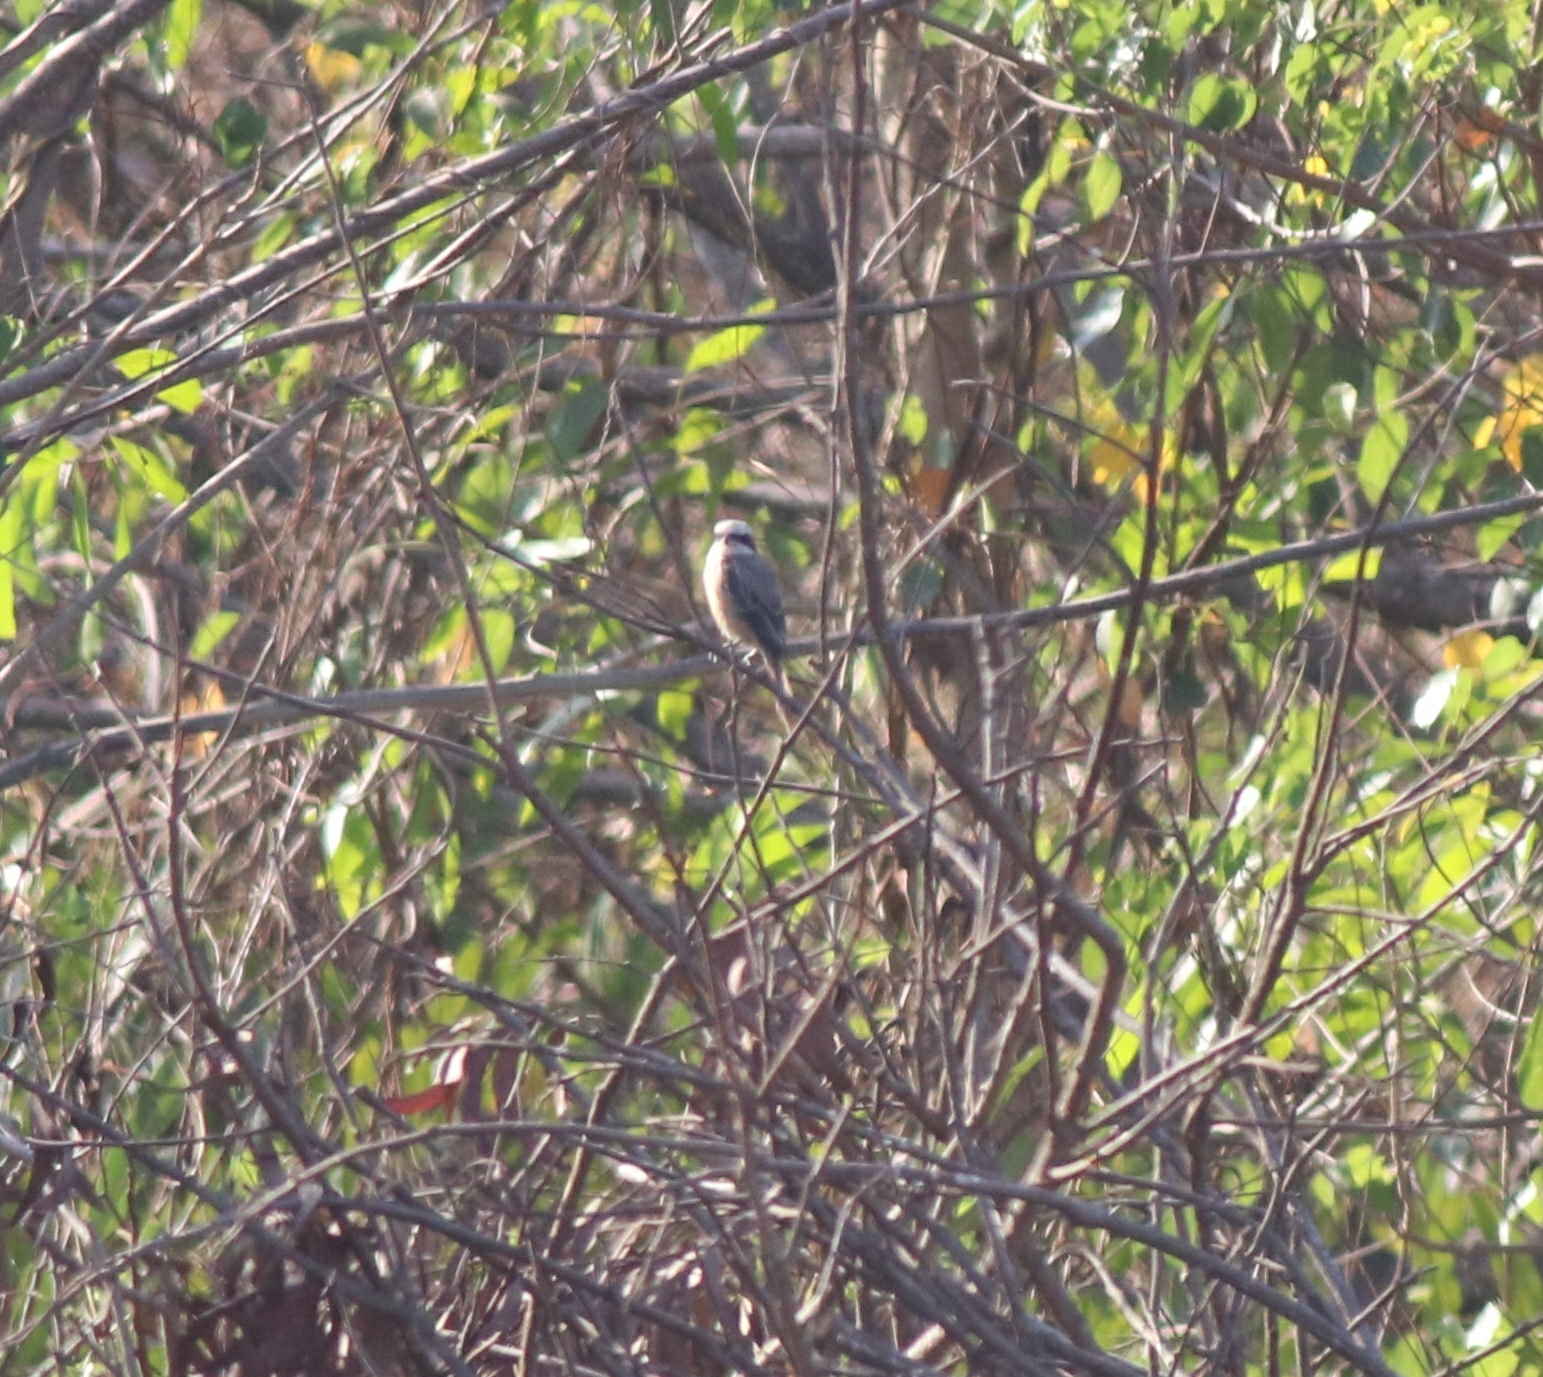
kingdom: Animalia
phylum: Chordata
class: Aves
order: Passeriformes
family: Laniidae
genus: Lanius
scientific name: Lanius cristatus
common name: Brown shrike
